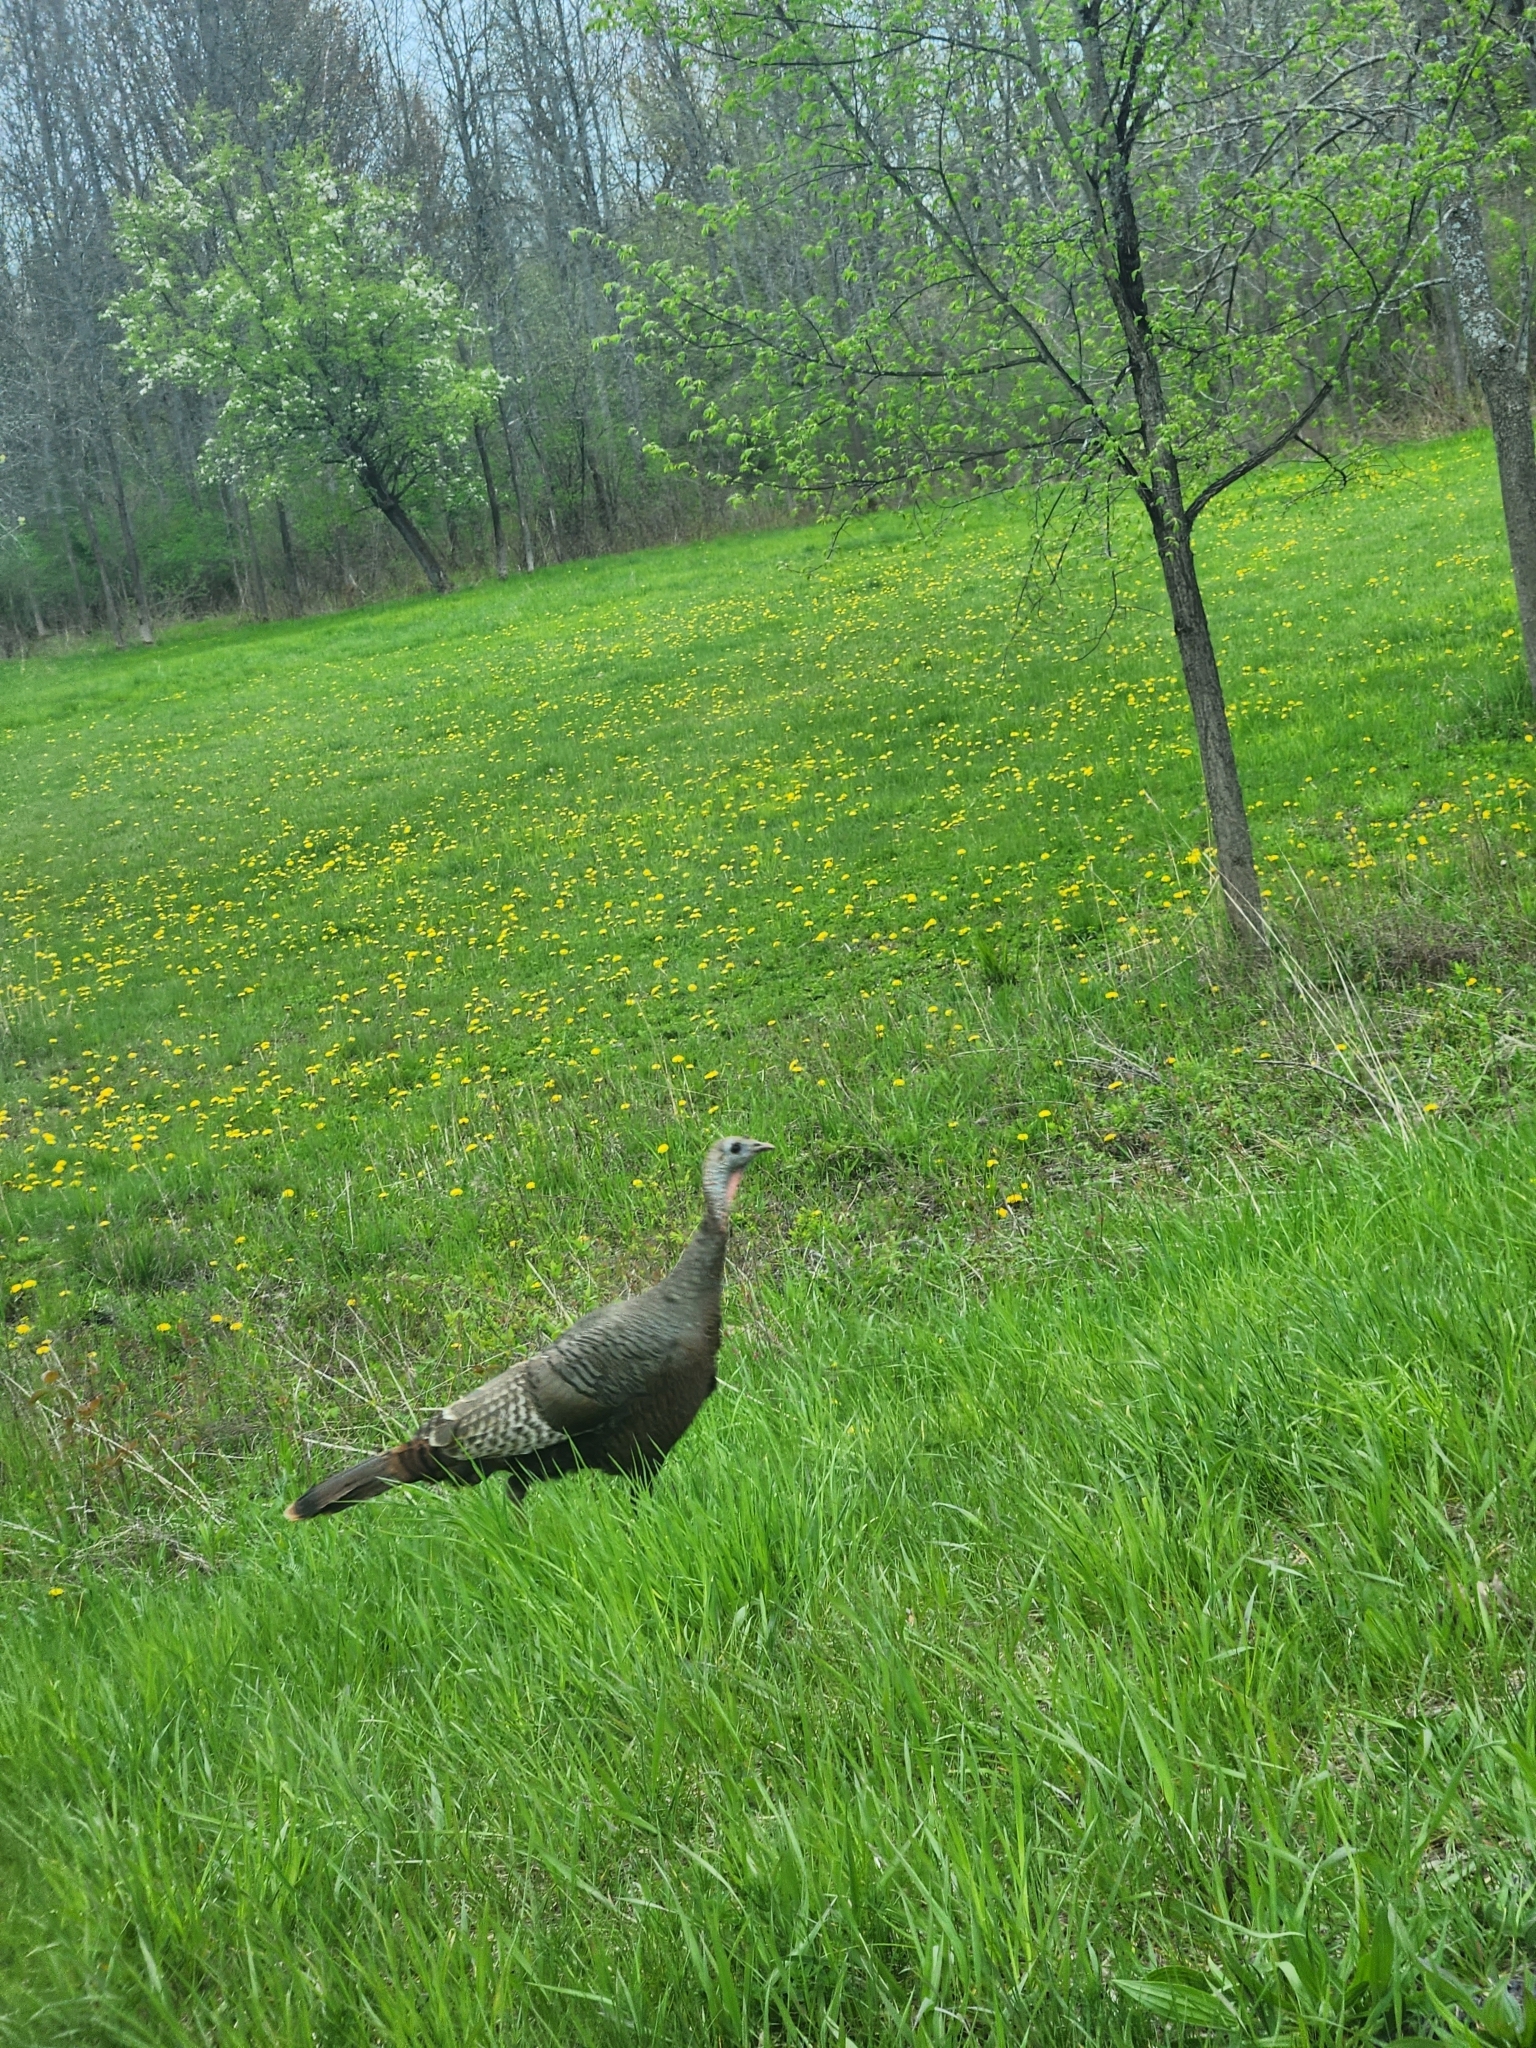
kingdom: Animalia
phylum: Chordata
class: Aves
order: Galliformes
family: Phasianidae
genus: Meleagris
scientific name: Meleagris gallopavo
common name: Wild turkey
